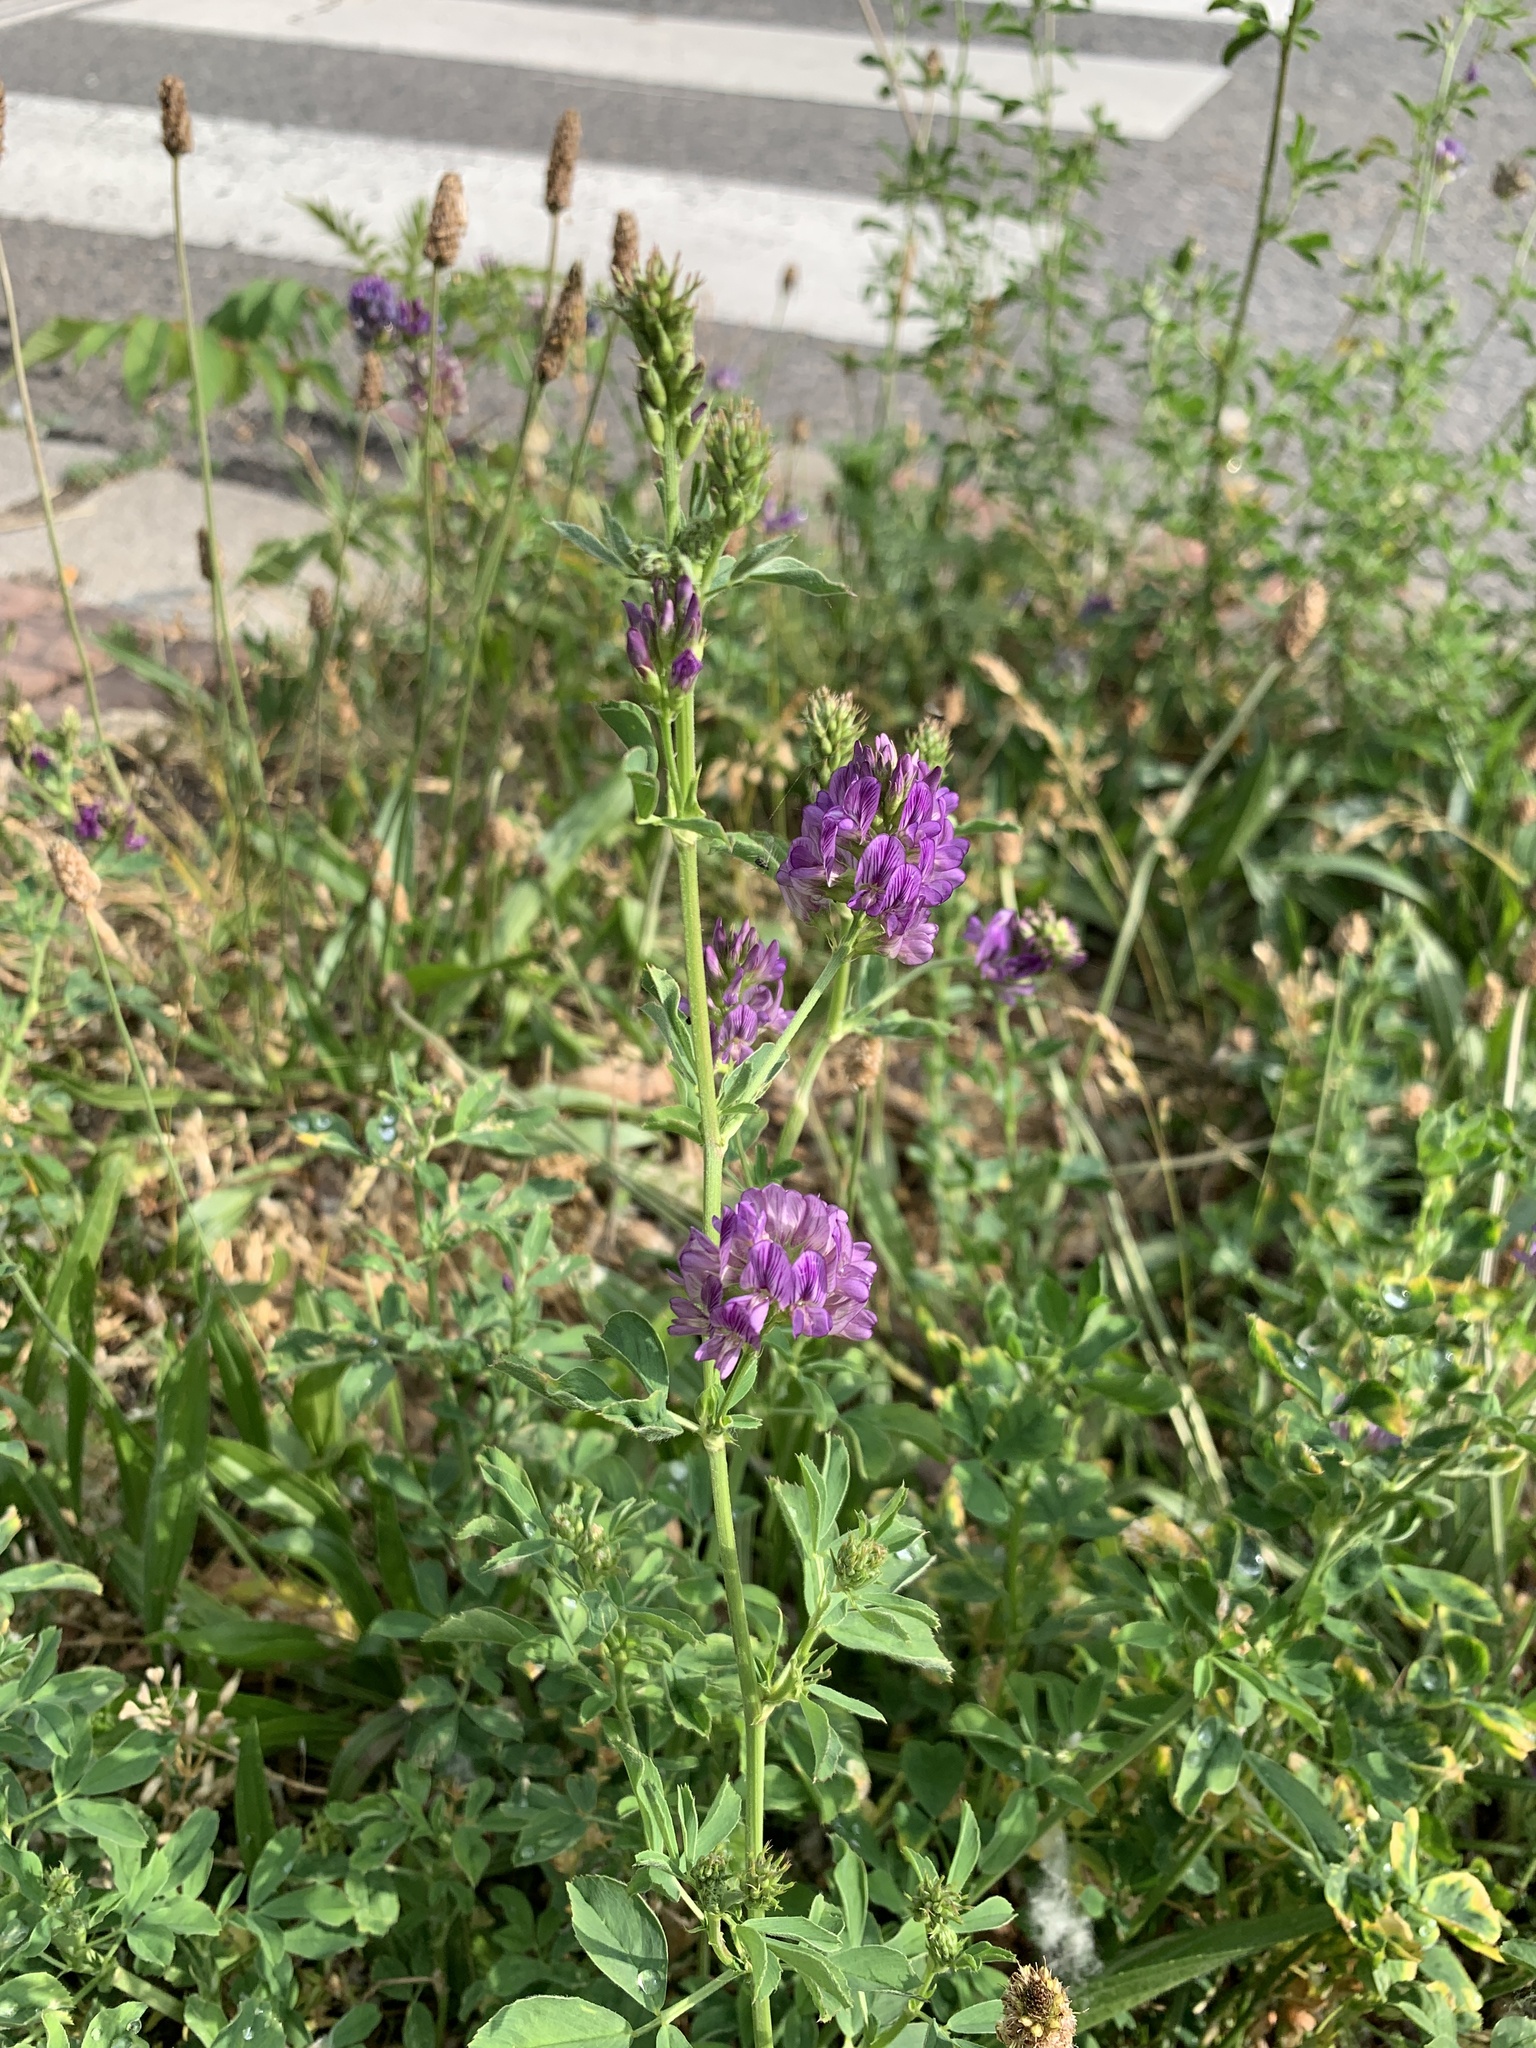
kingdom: Plantae
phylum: Tracheophyta
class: Magnoliopsida
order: Fabales
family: Fabaceae
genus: Medicago
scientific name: Medicago sativa
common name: Alfalfa
